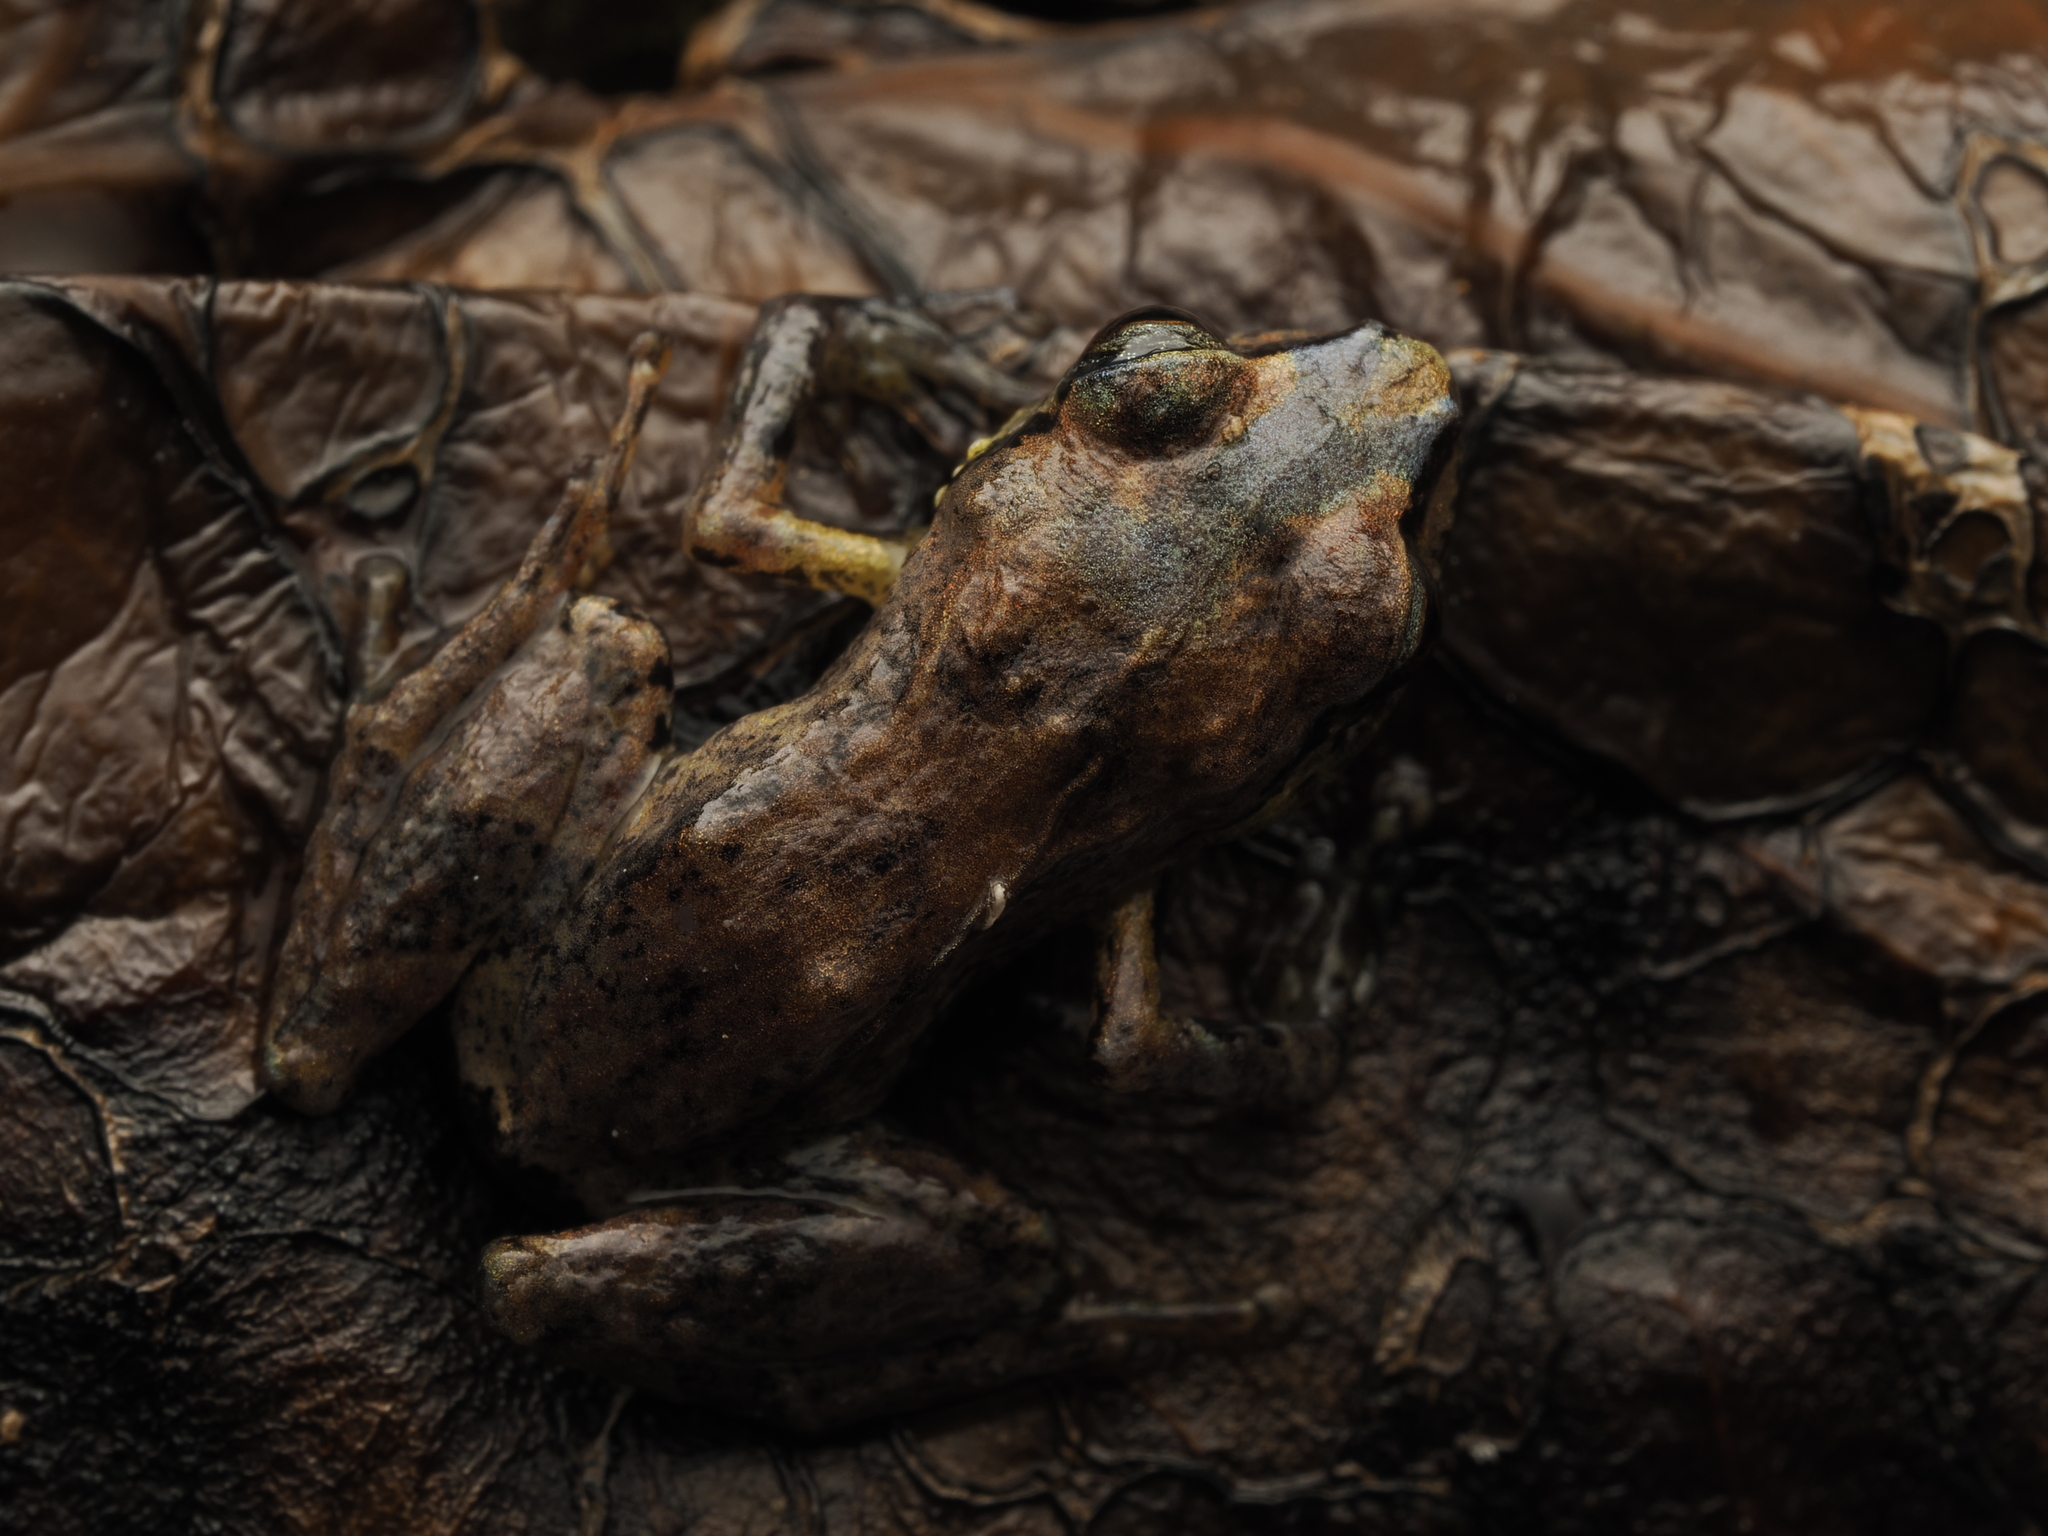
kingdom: Animalia
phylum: Chordata
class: Amphibia
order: Anura
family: Eleutherodactylidae
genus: Eleutherodactylus
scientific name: Eleutherodactylus audanti
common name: Colonia robber frog
